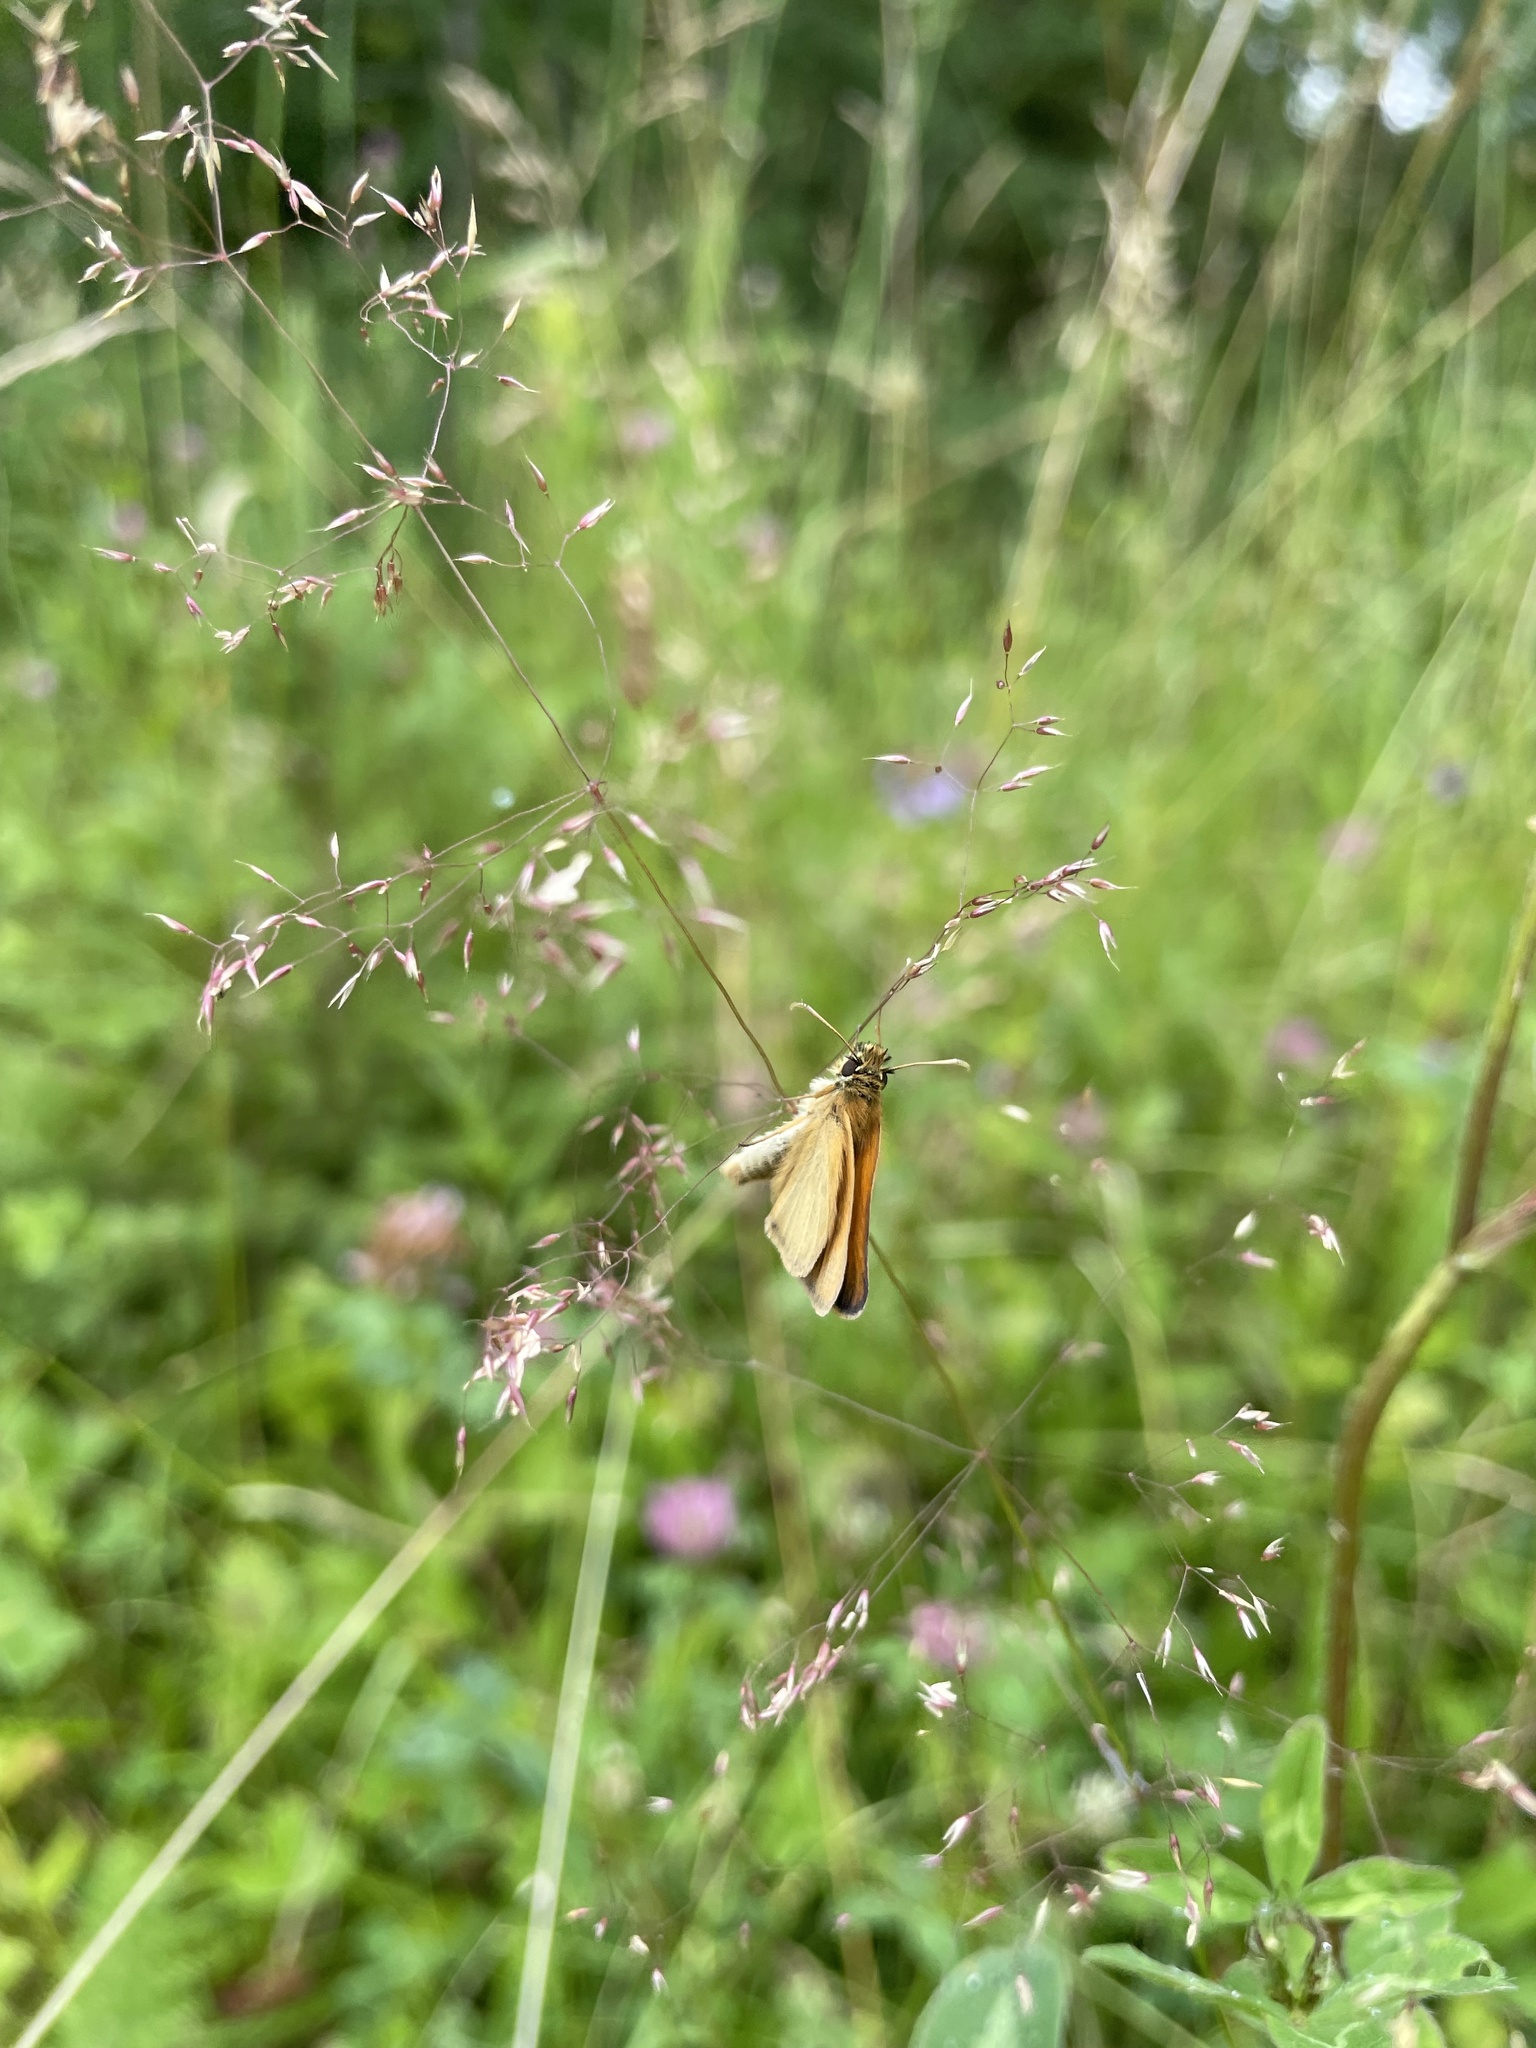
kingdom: Animalia
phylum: Arthropoda
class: Insecta
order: Lepidoptera
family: Hesperiidae
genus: Thymelicus
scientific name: Thymelicus lineola
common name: Essex skipper
